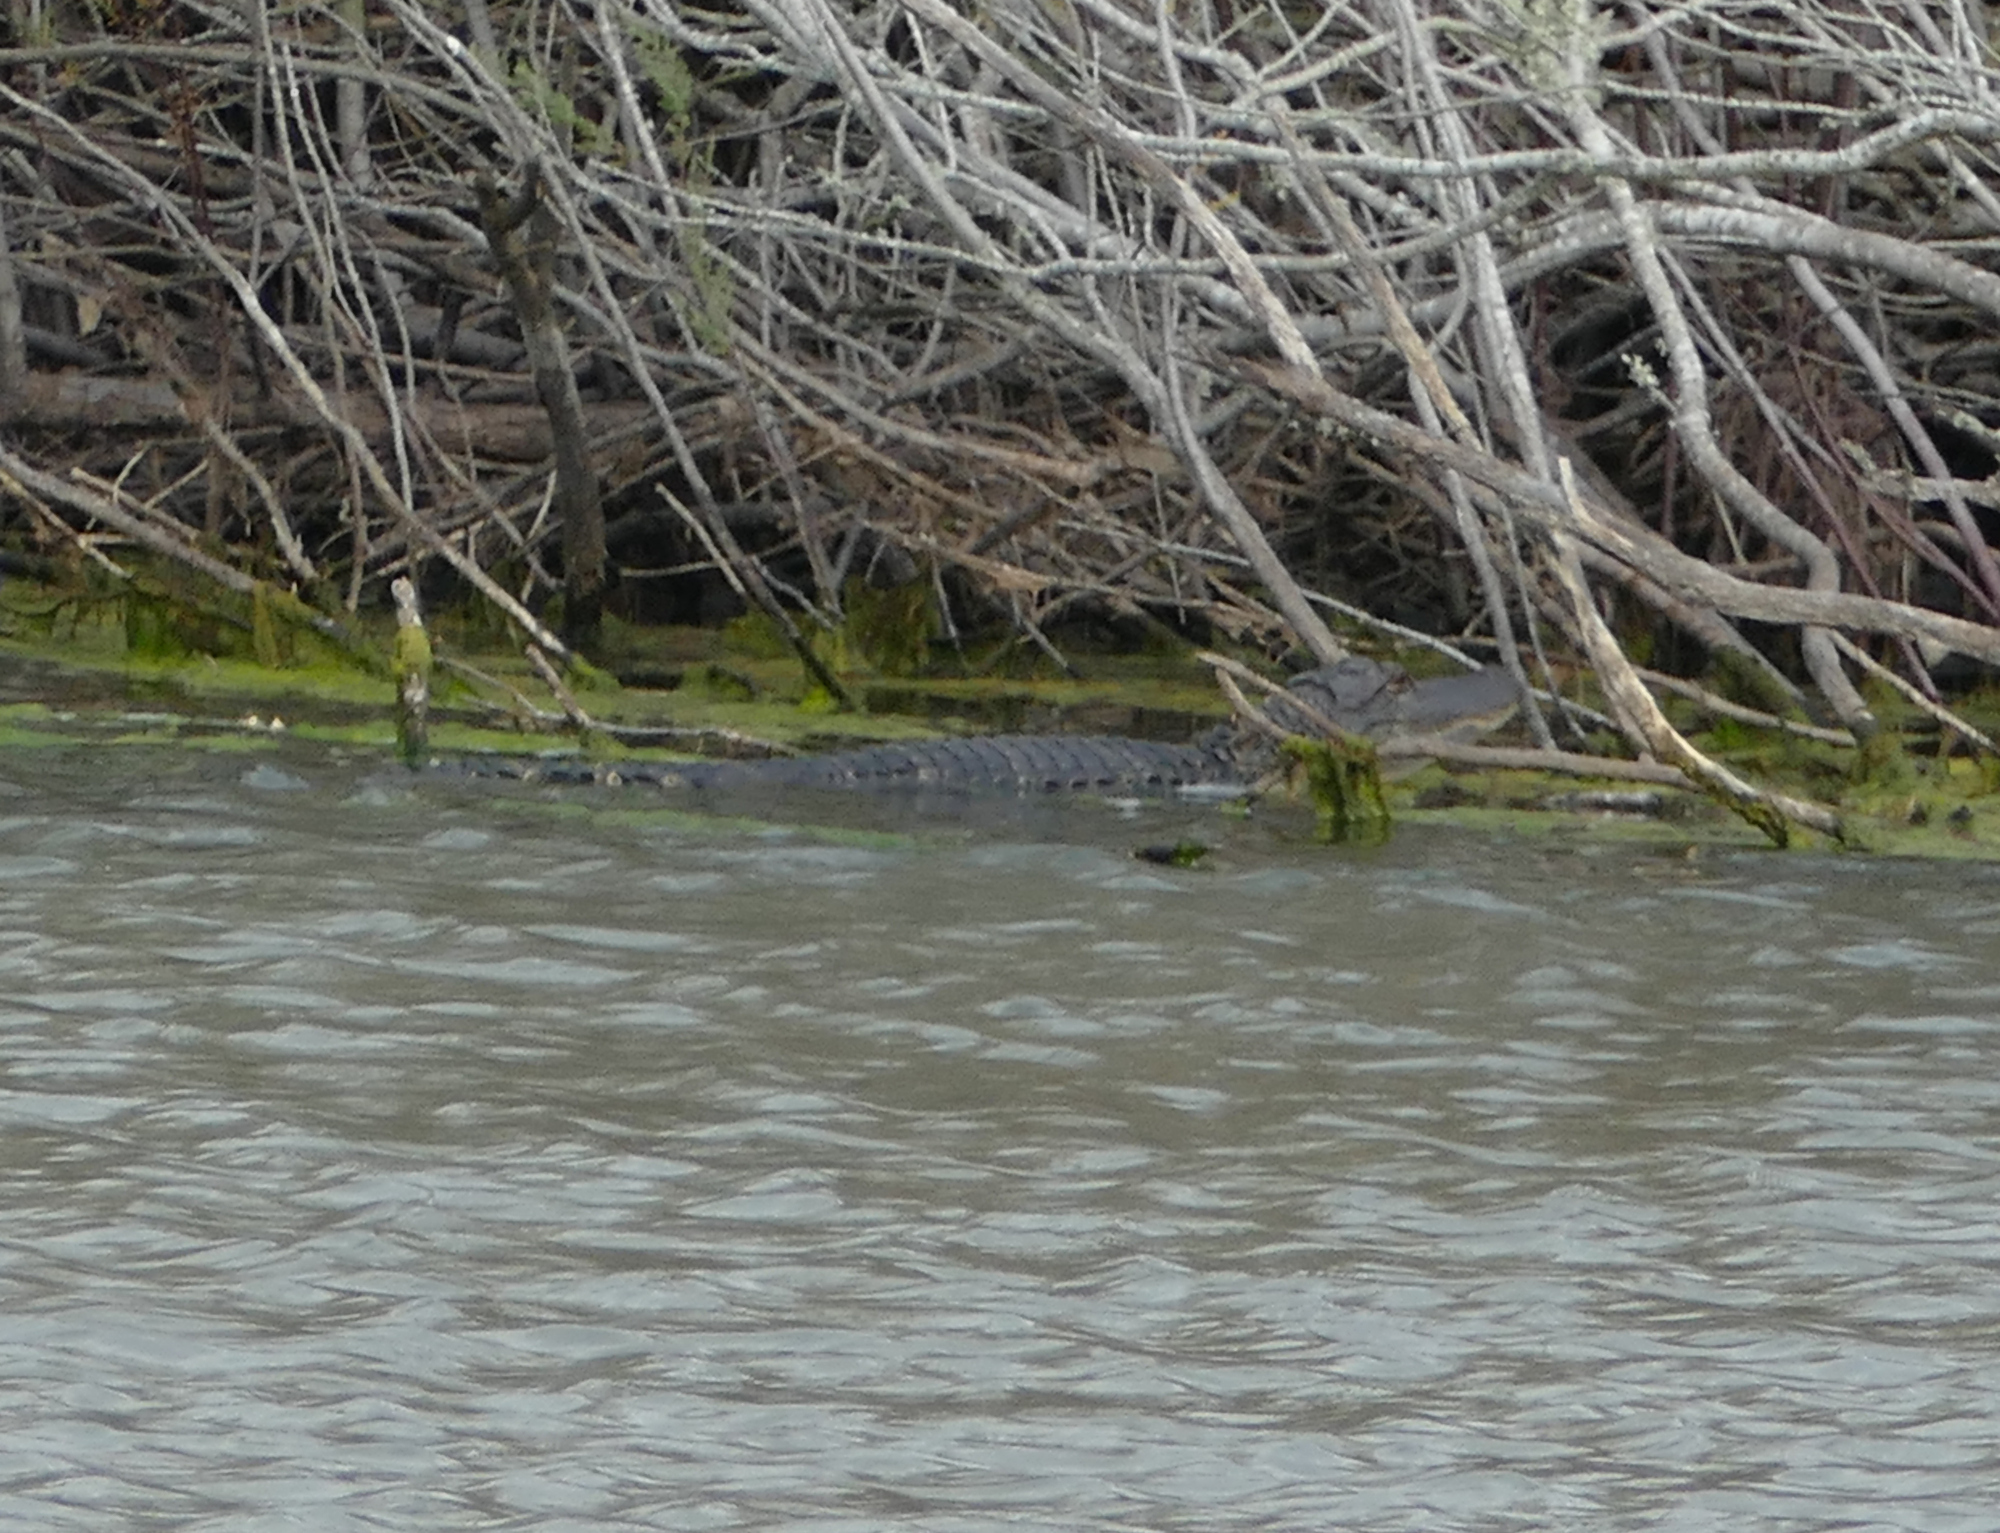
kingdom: Animalia
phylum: Chordata
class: Crocodylia
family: Alligatoridae
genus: Alligator
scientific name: Alligator mississippiensis
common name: American alligator
